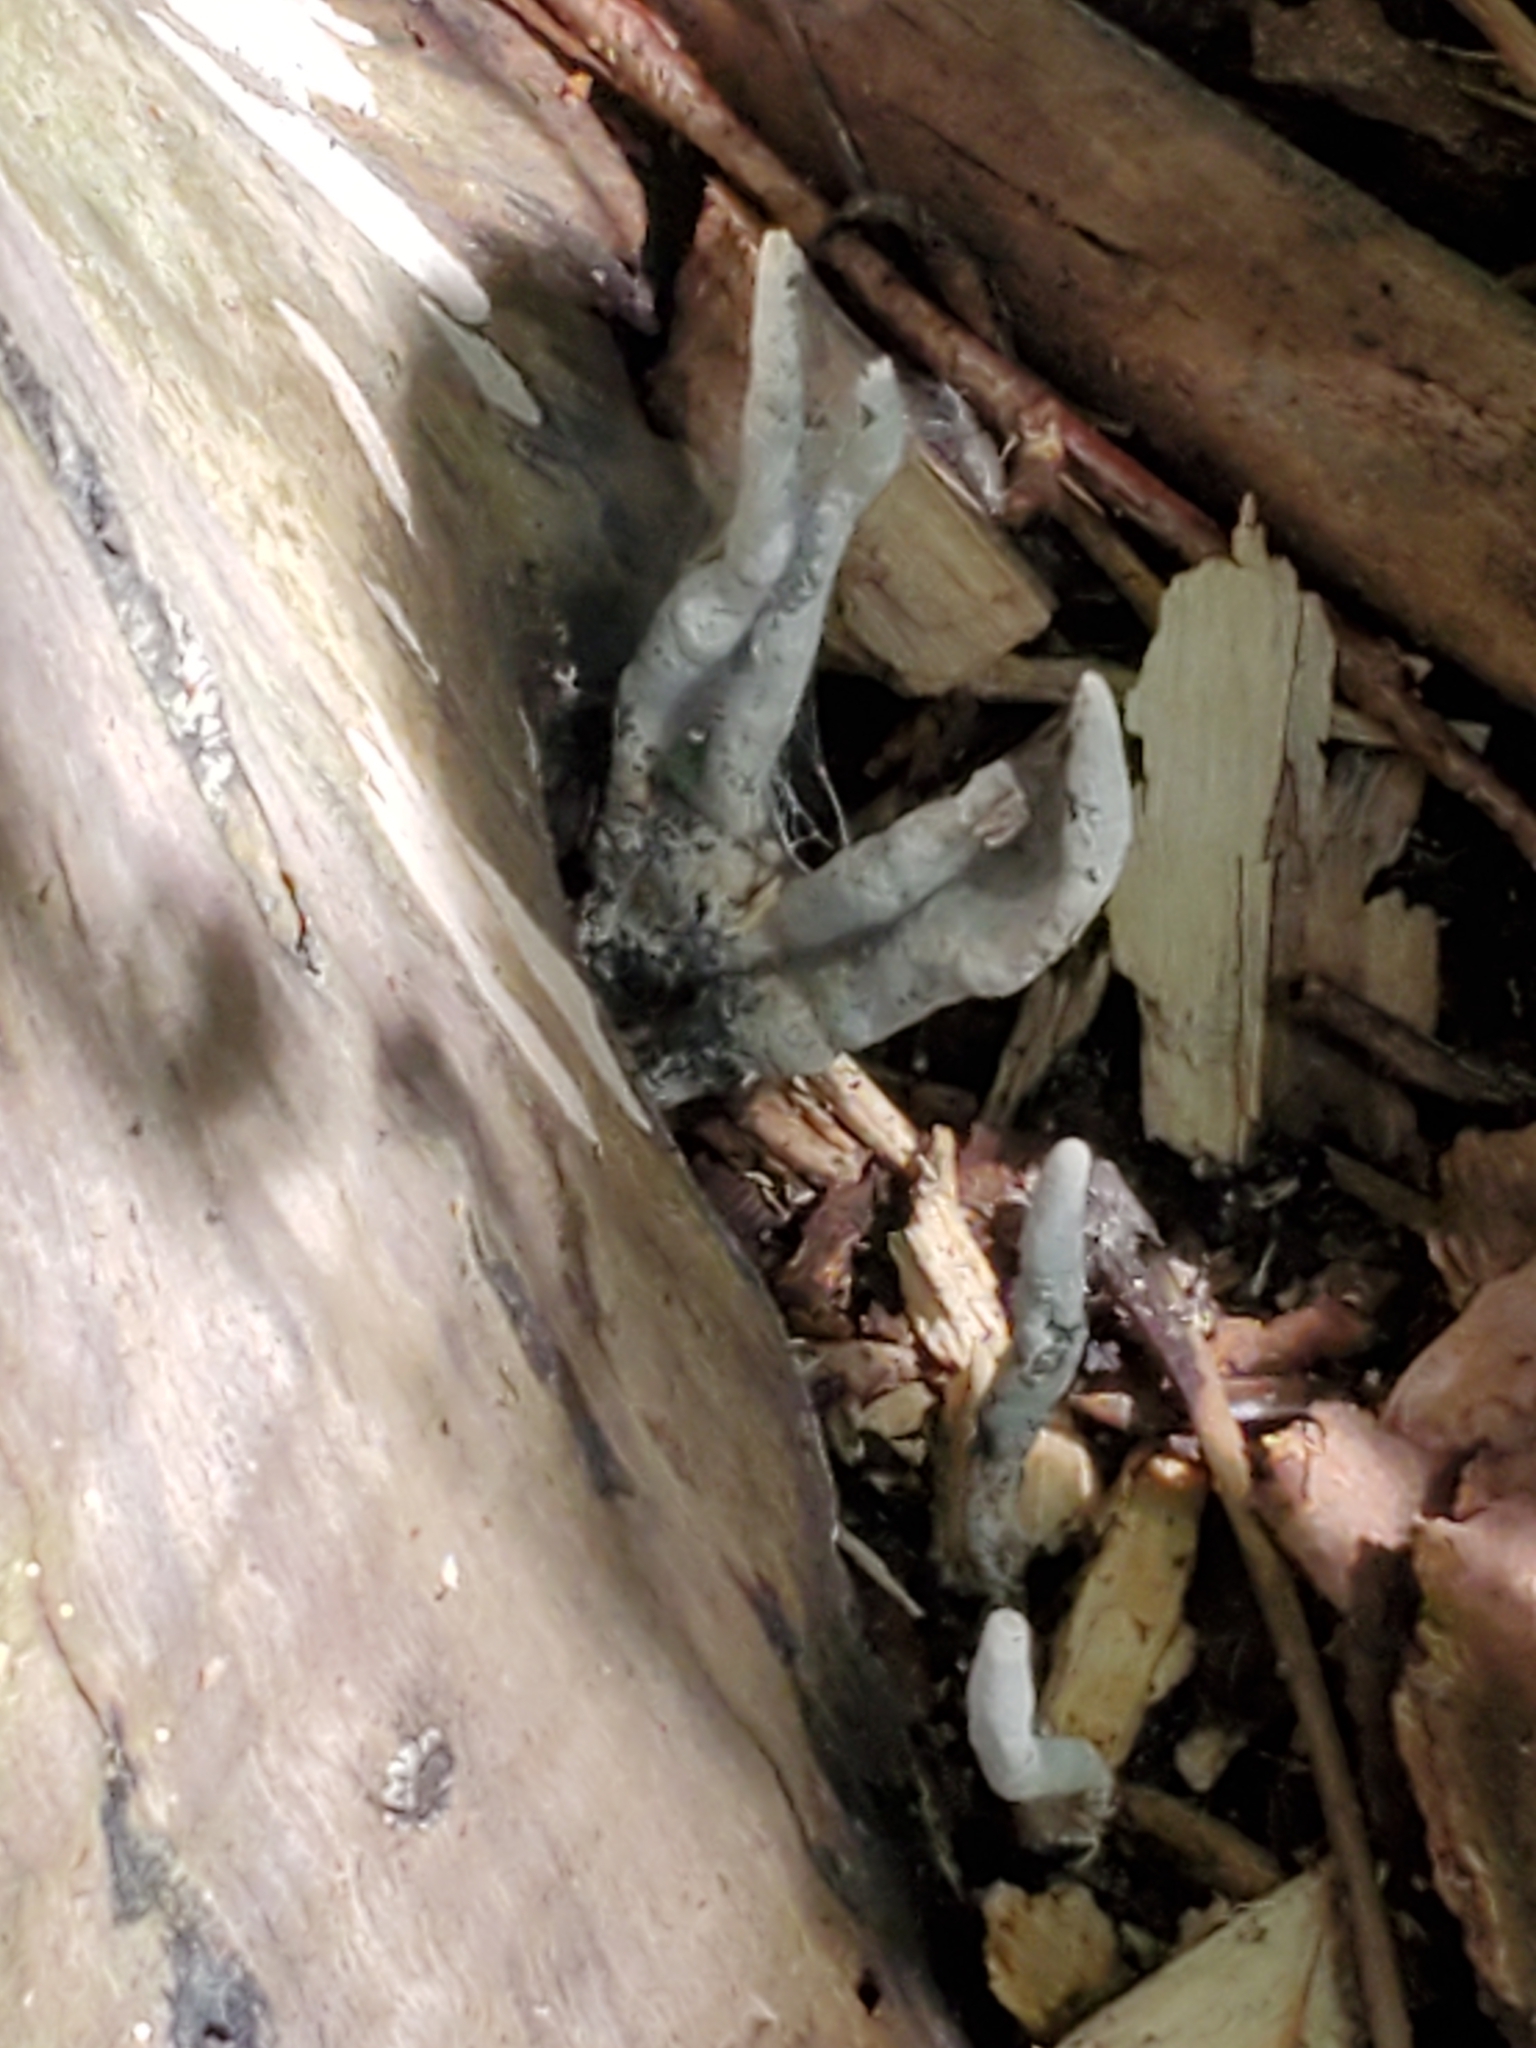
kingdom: Fungi
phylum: Ascomycota
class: Sordariomycetes
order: Xylariales
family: Xylariaceae
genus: Xylaria
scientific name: Xylaria polymorpha
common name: Dead man's fingers
